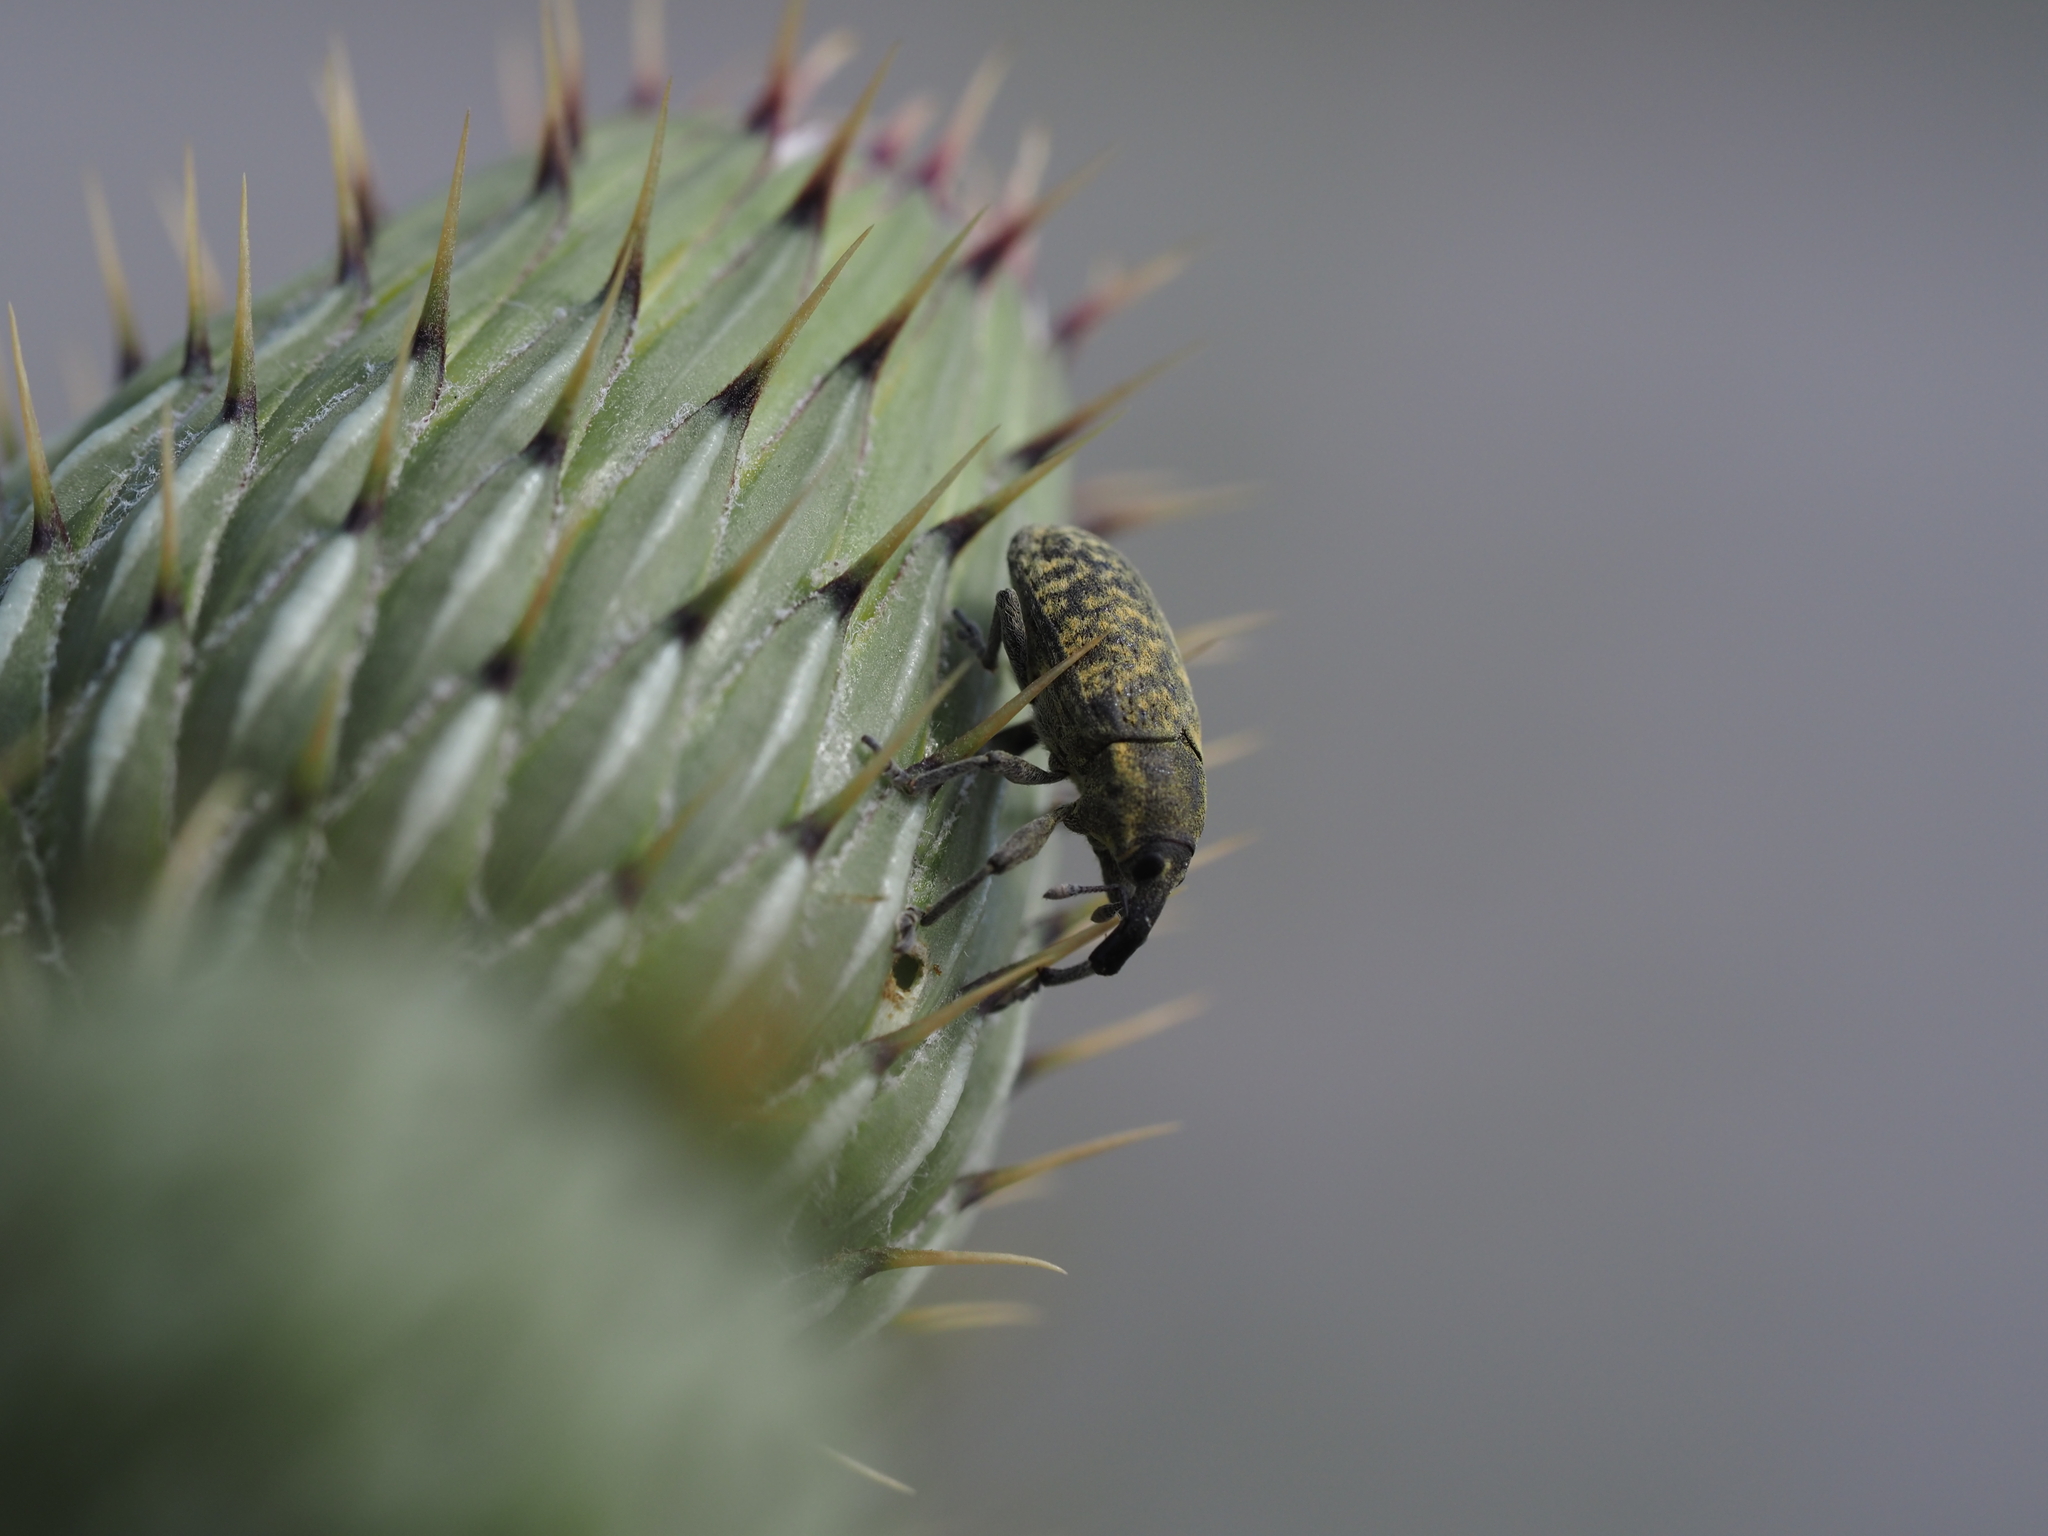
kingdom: Animalia
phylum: Arthropoda
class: Insecta
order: Coleoptera
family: Curculionidae
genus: Larinus
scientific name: Larinus carlinae
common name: Weevil
